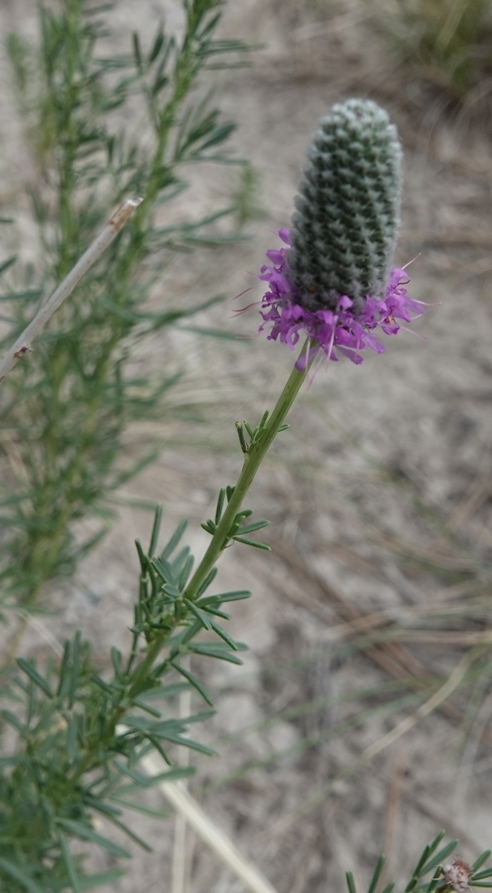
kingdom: Plantae
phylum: Tracheophyta
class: Magnoliopsida
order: Fabales
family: Fabaceae
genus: Dalea
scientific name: Dalea purpurea
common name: Purple prairie-clover
